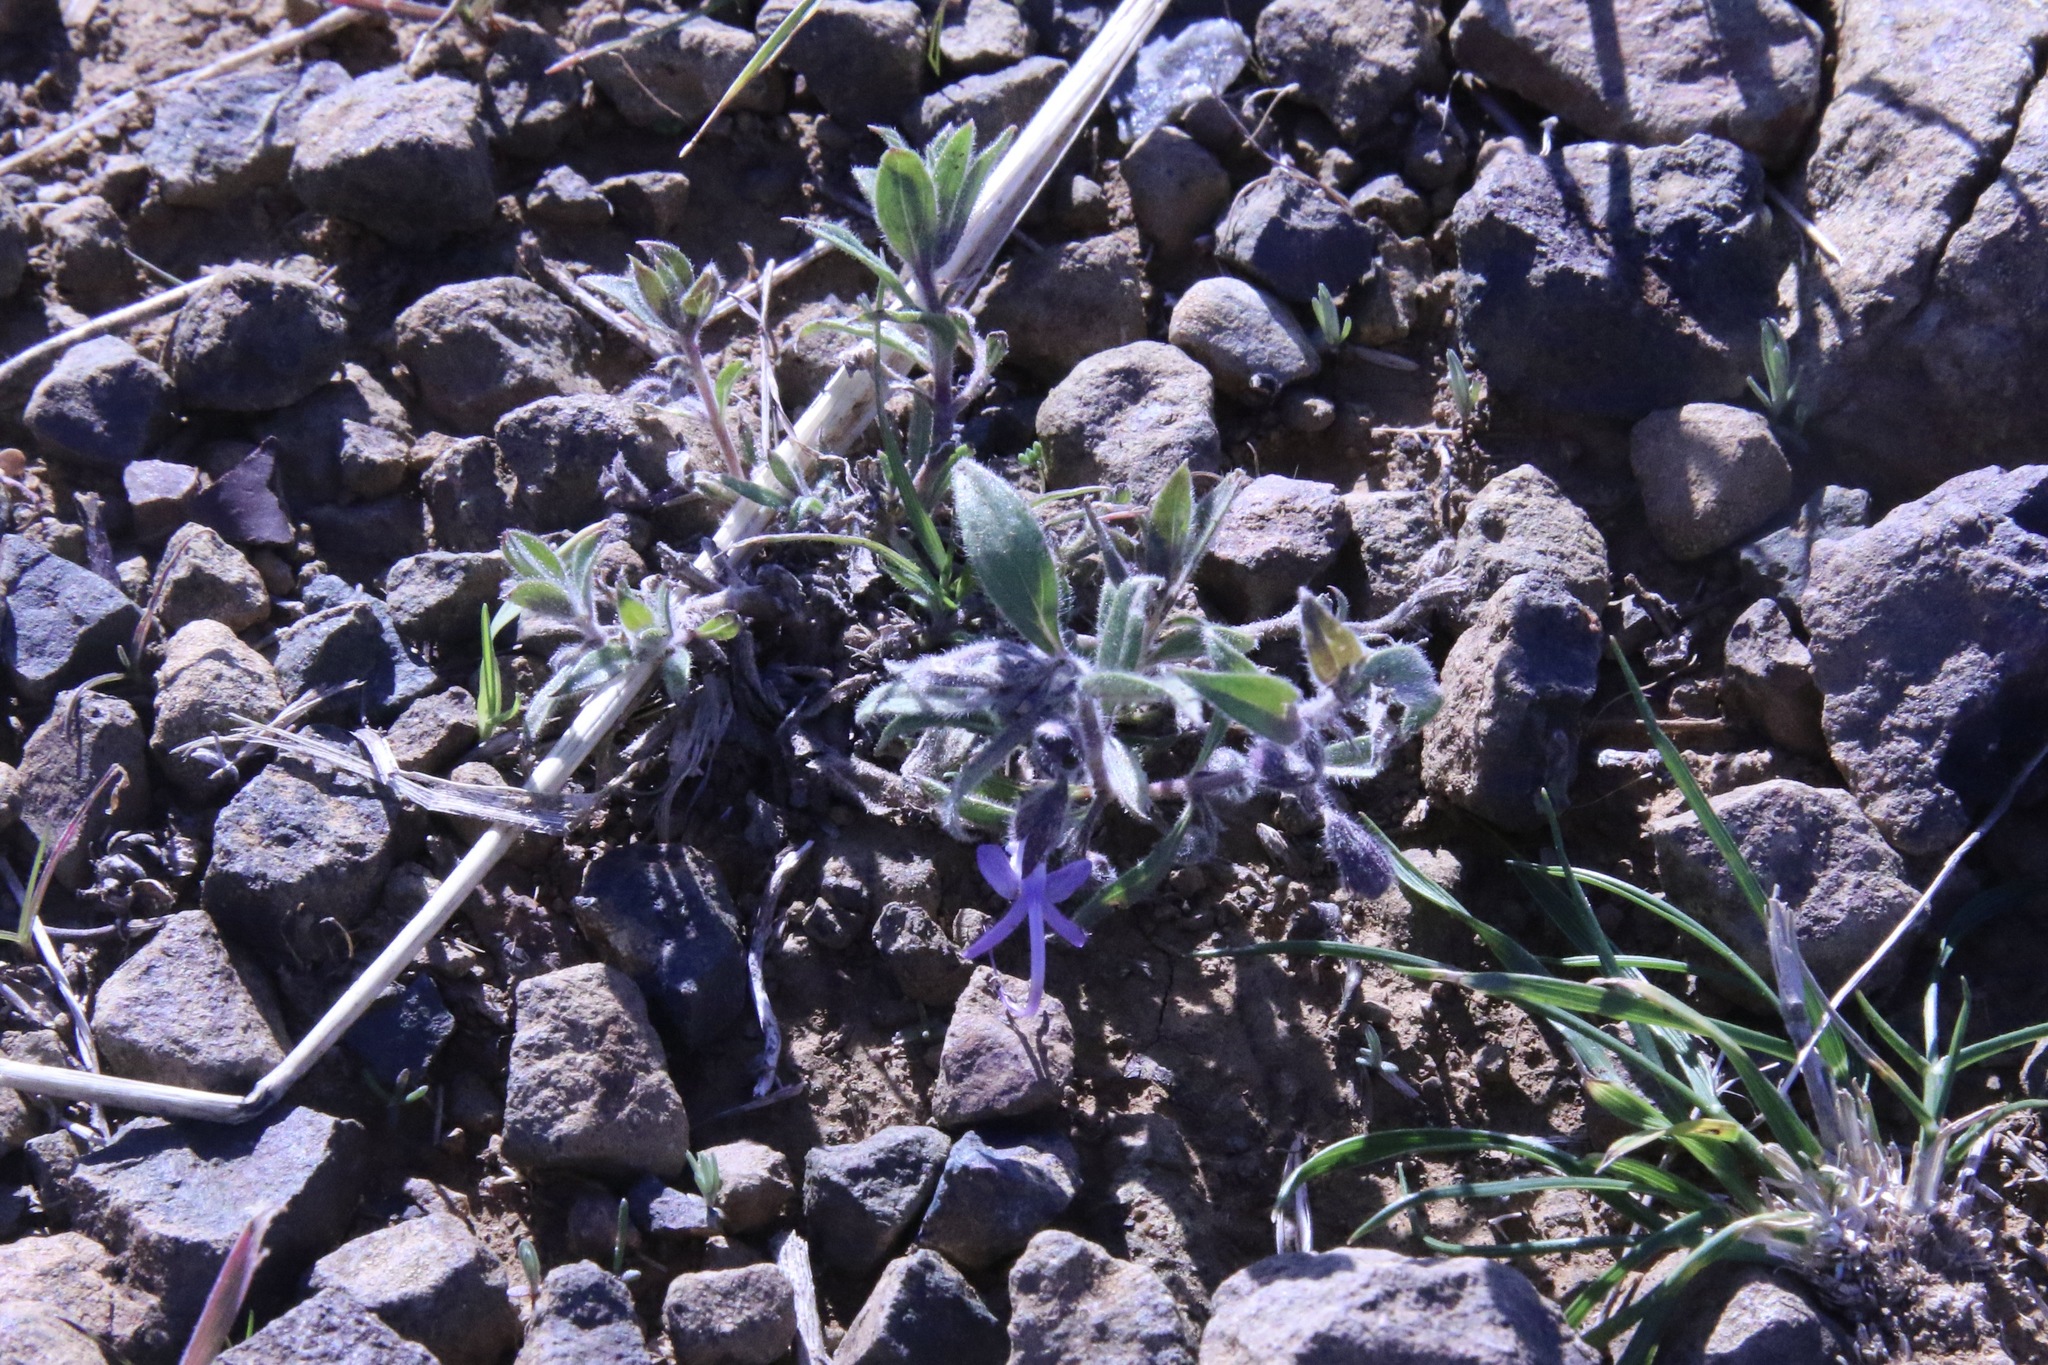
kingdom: Plantae
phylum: Tracheophyta
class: Magnoliopsida
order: Lamiales
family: Lamiaceae
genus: Trichostema
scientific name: Trichostema lanceolatum
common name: Vinegar-weed
